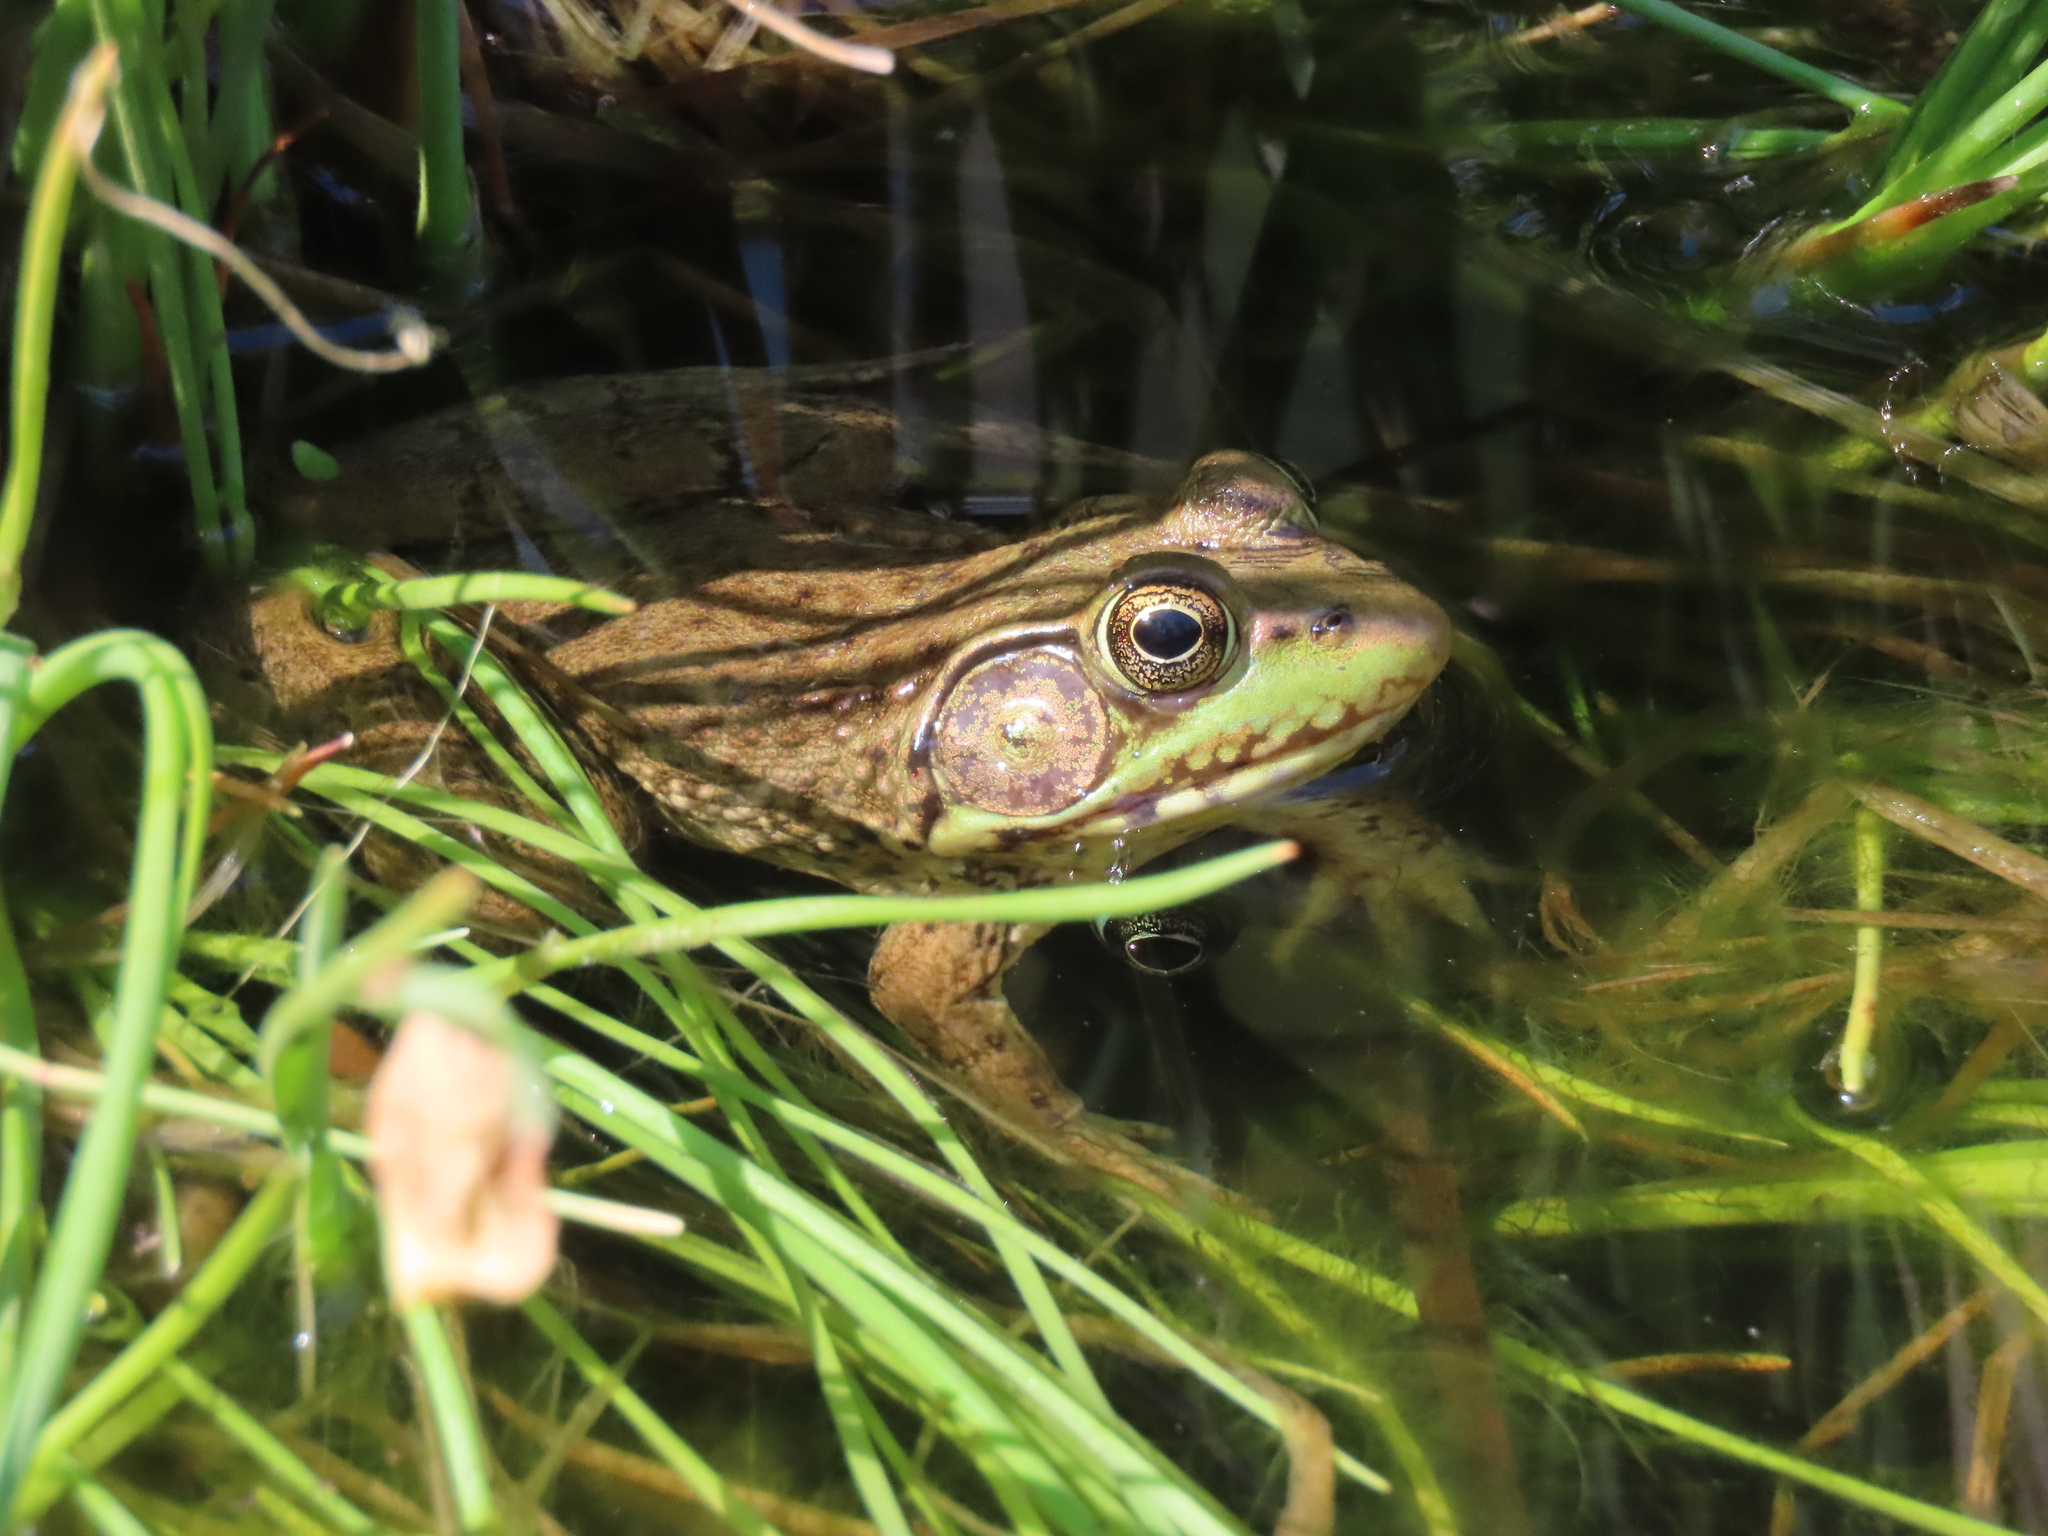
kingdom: Animalia
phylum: Chordata
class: Amphibia
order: Anura
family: Ranidae
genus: Lithobates
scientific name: Lithobates clamitans
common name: Green frog
